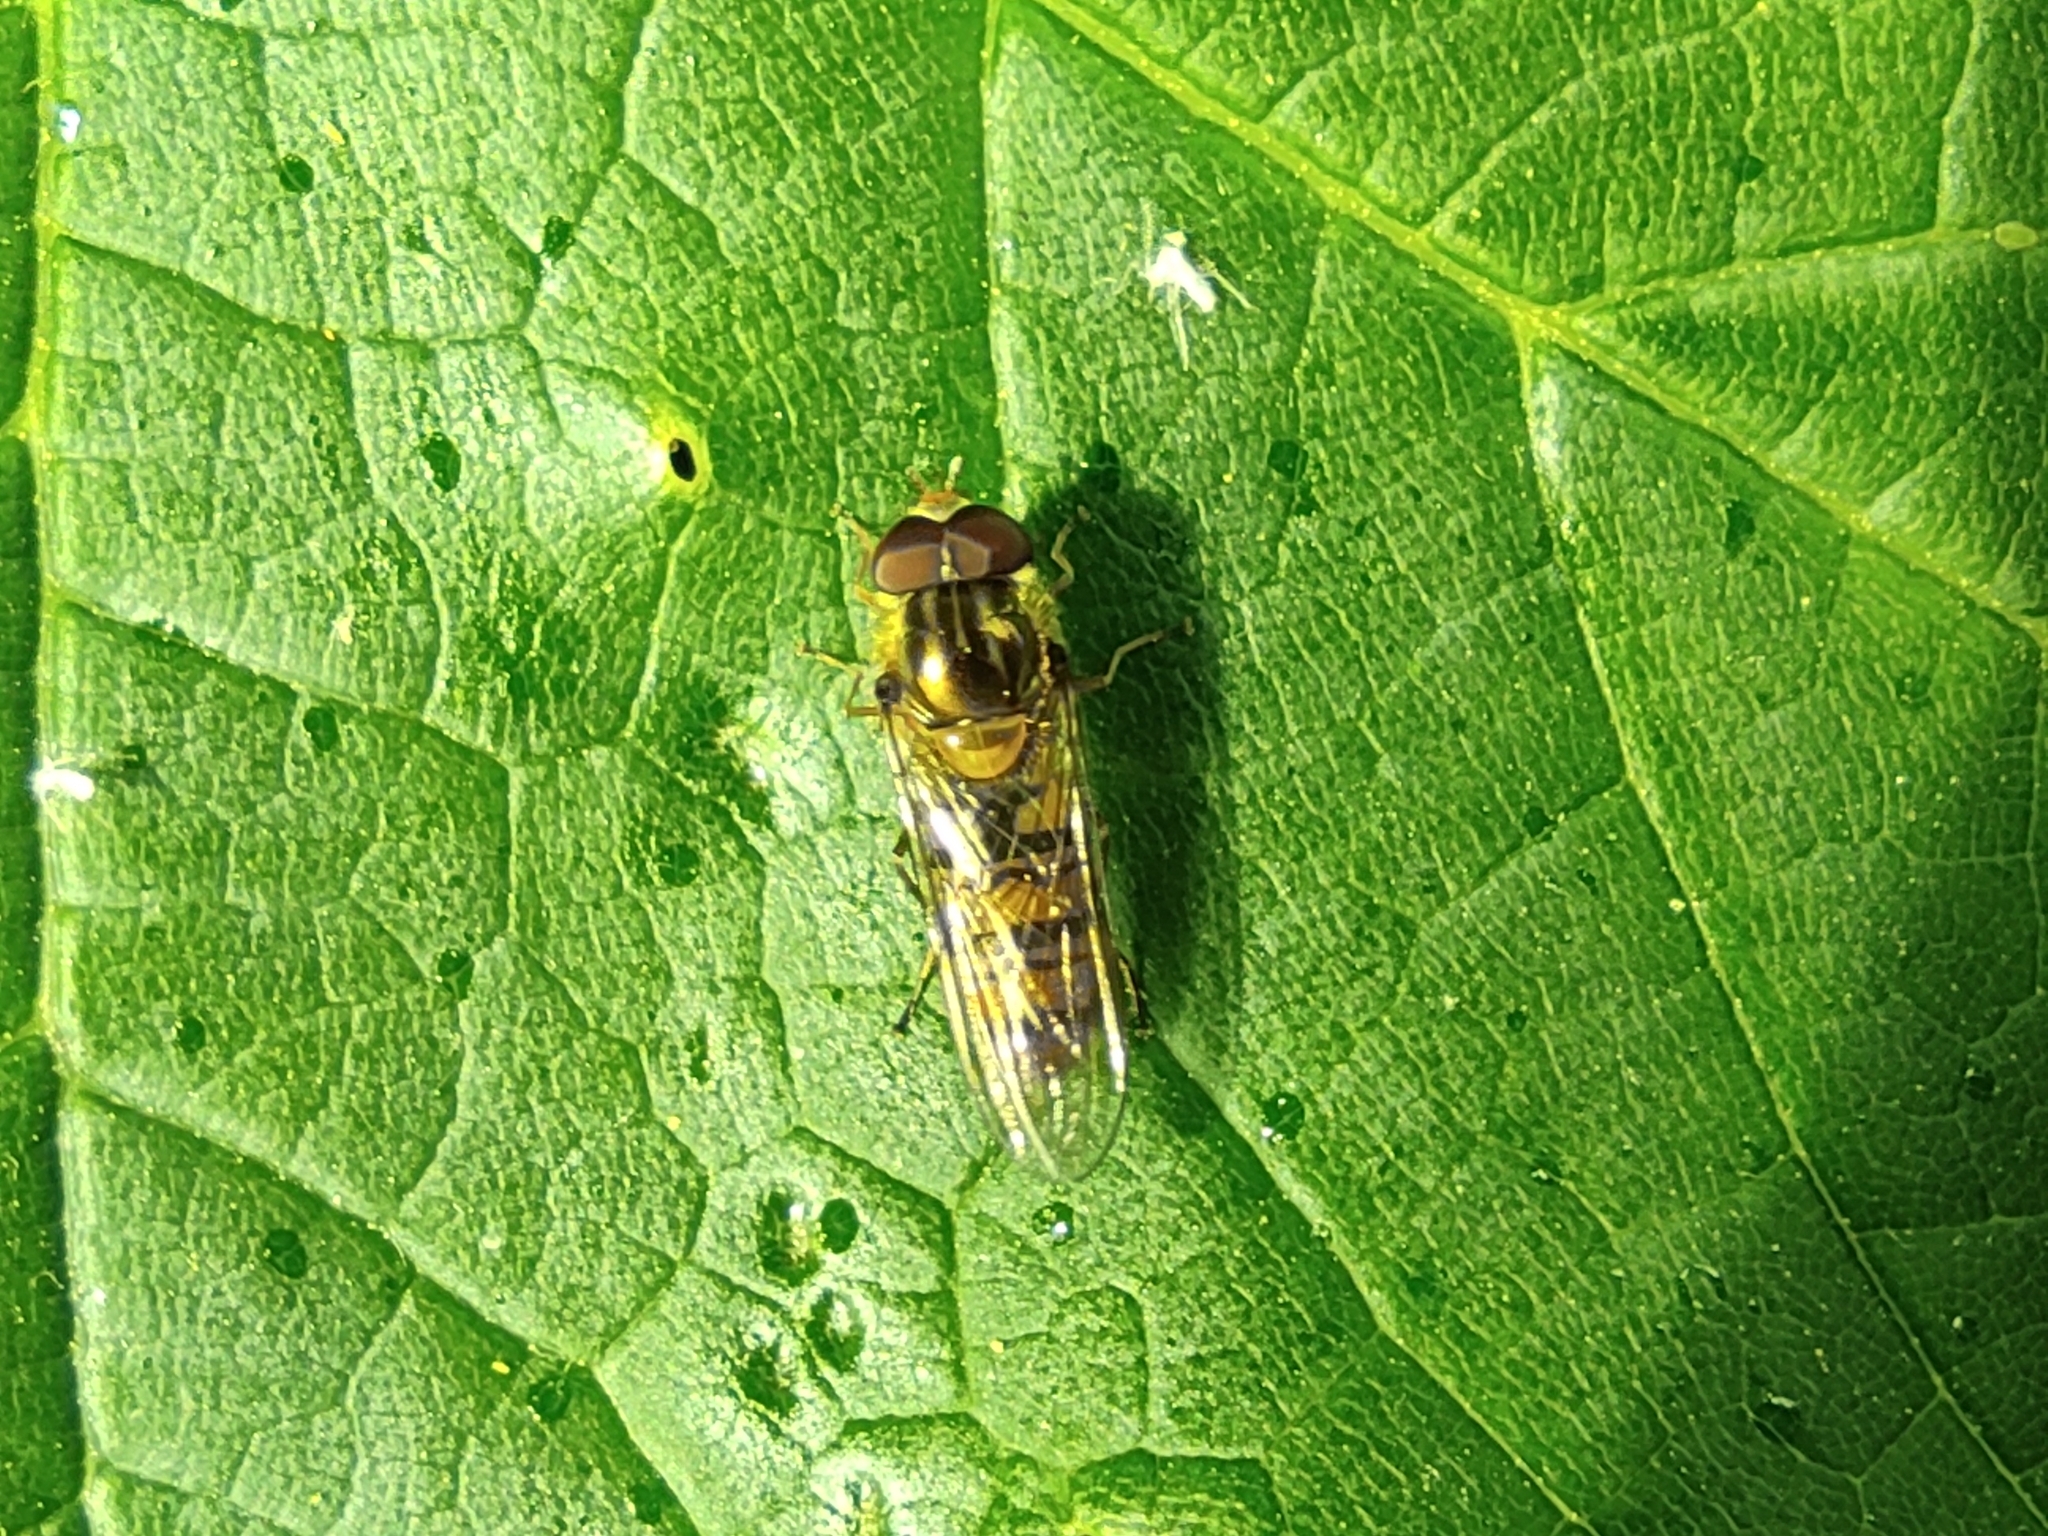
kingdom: Animalia
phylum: Arthropoda
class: Insecta
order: Diptera
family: Syrphidae
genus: Episyrphus
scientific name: Episyrphus balteatus
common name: Marmalade hoverfly
